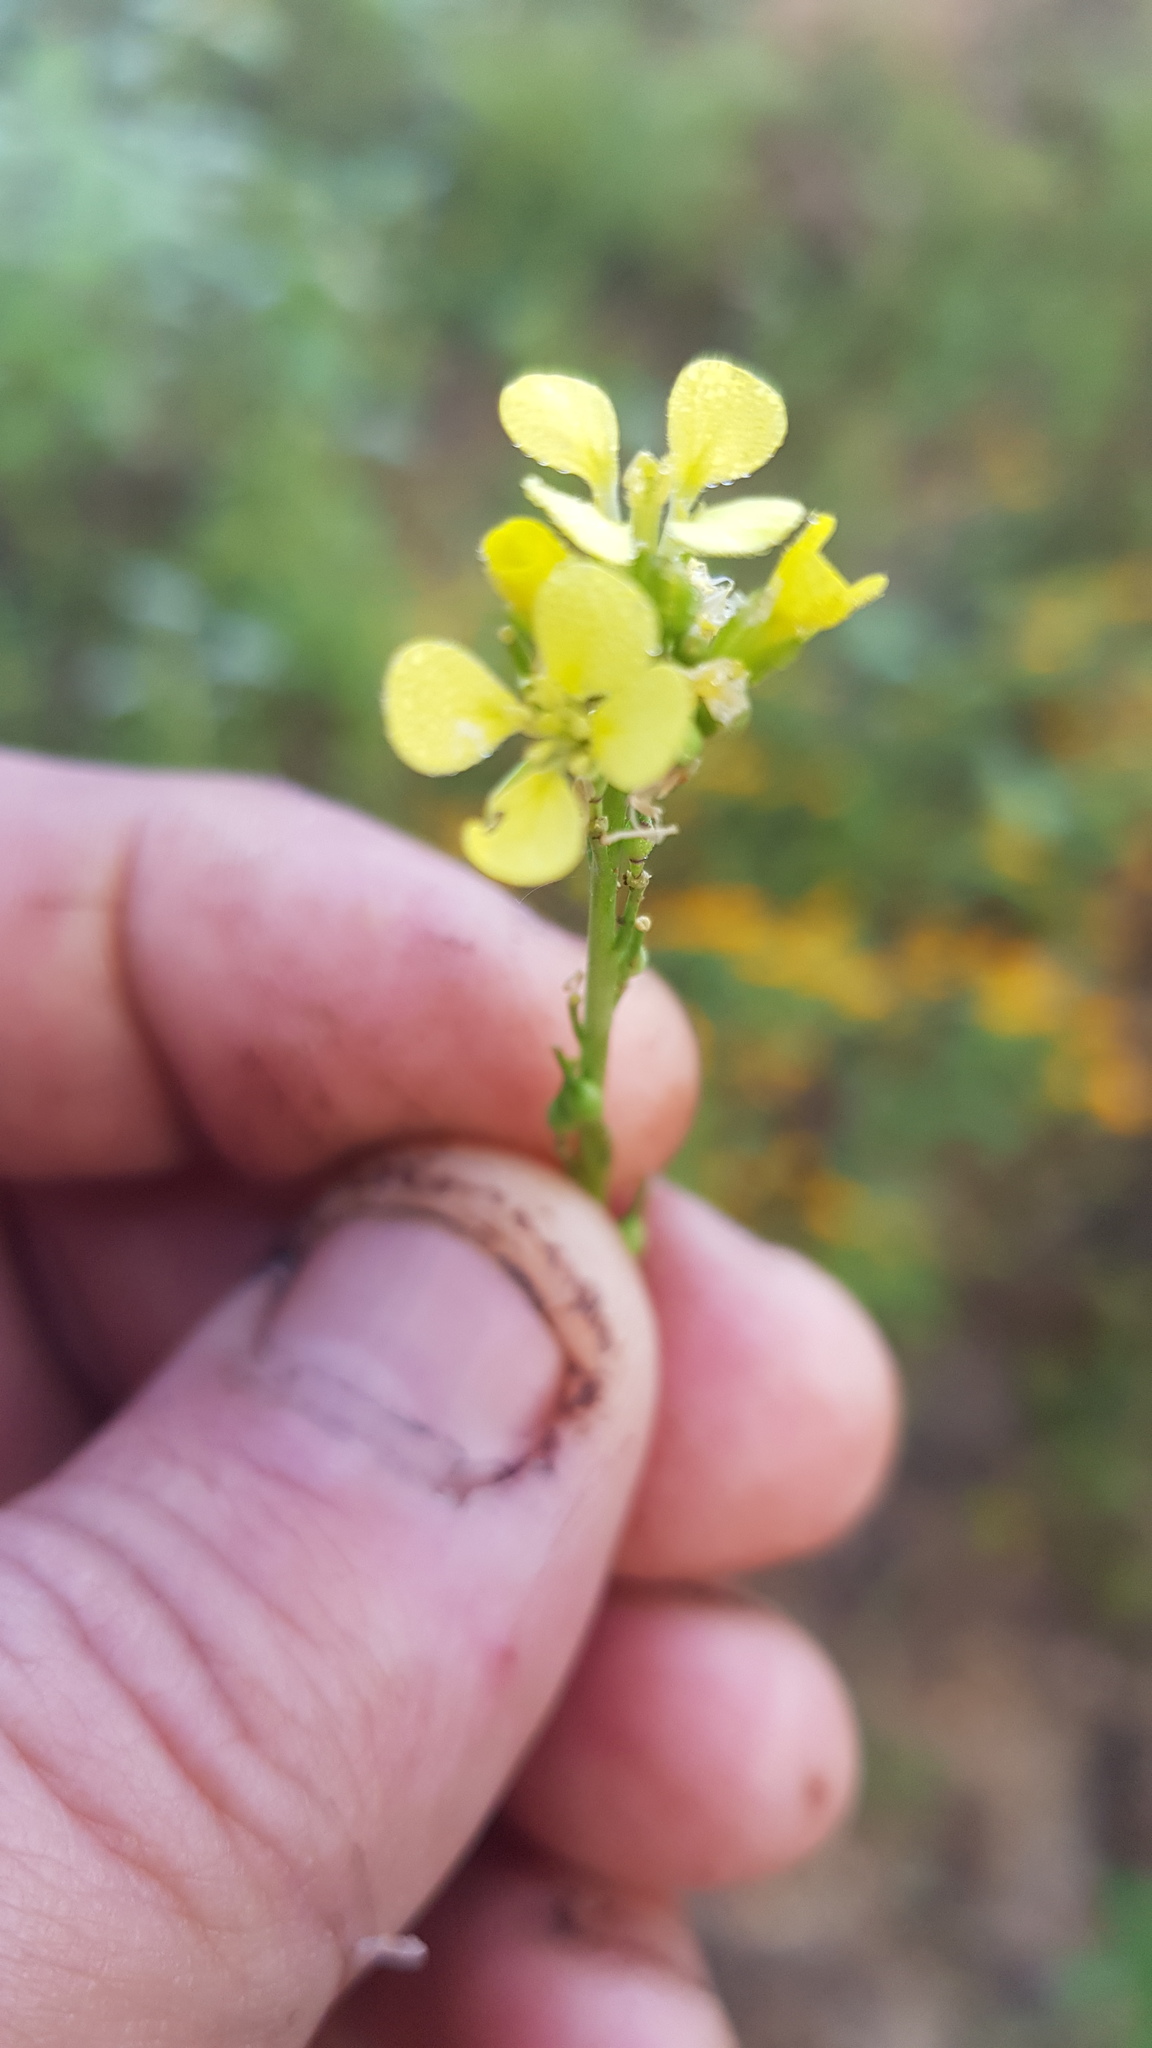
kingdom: Plantae
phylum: Tracheophyta
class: Magnoliopsida
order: Brassicales
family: Brassicaceae
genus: Rapistrum
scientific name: Rapistrum rugosum
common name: Annual bastardcabbage
